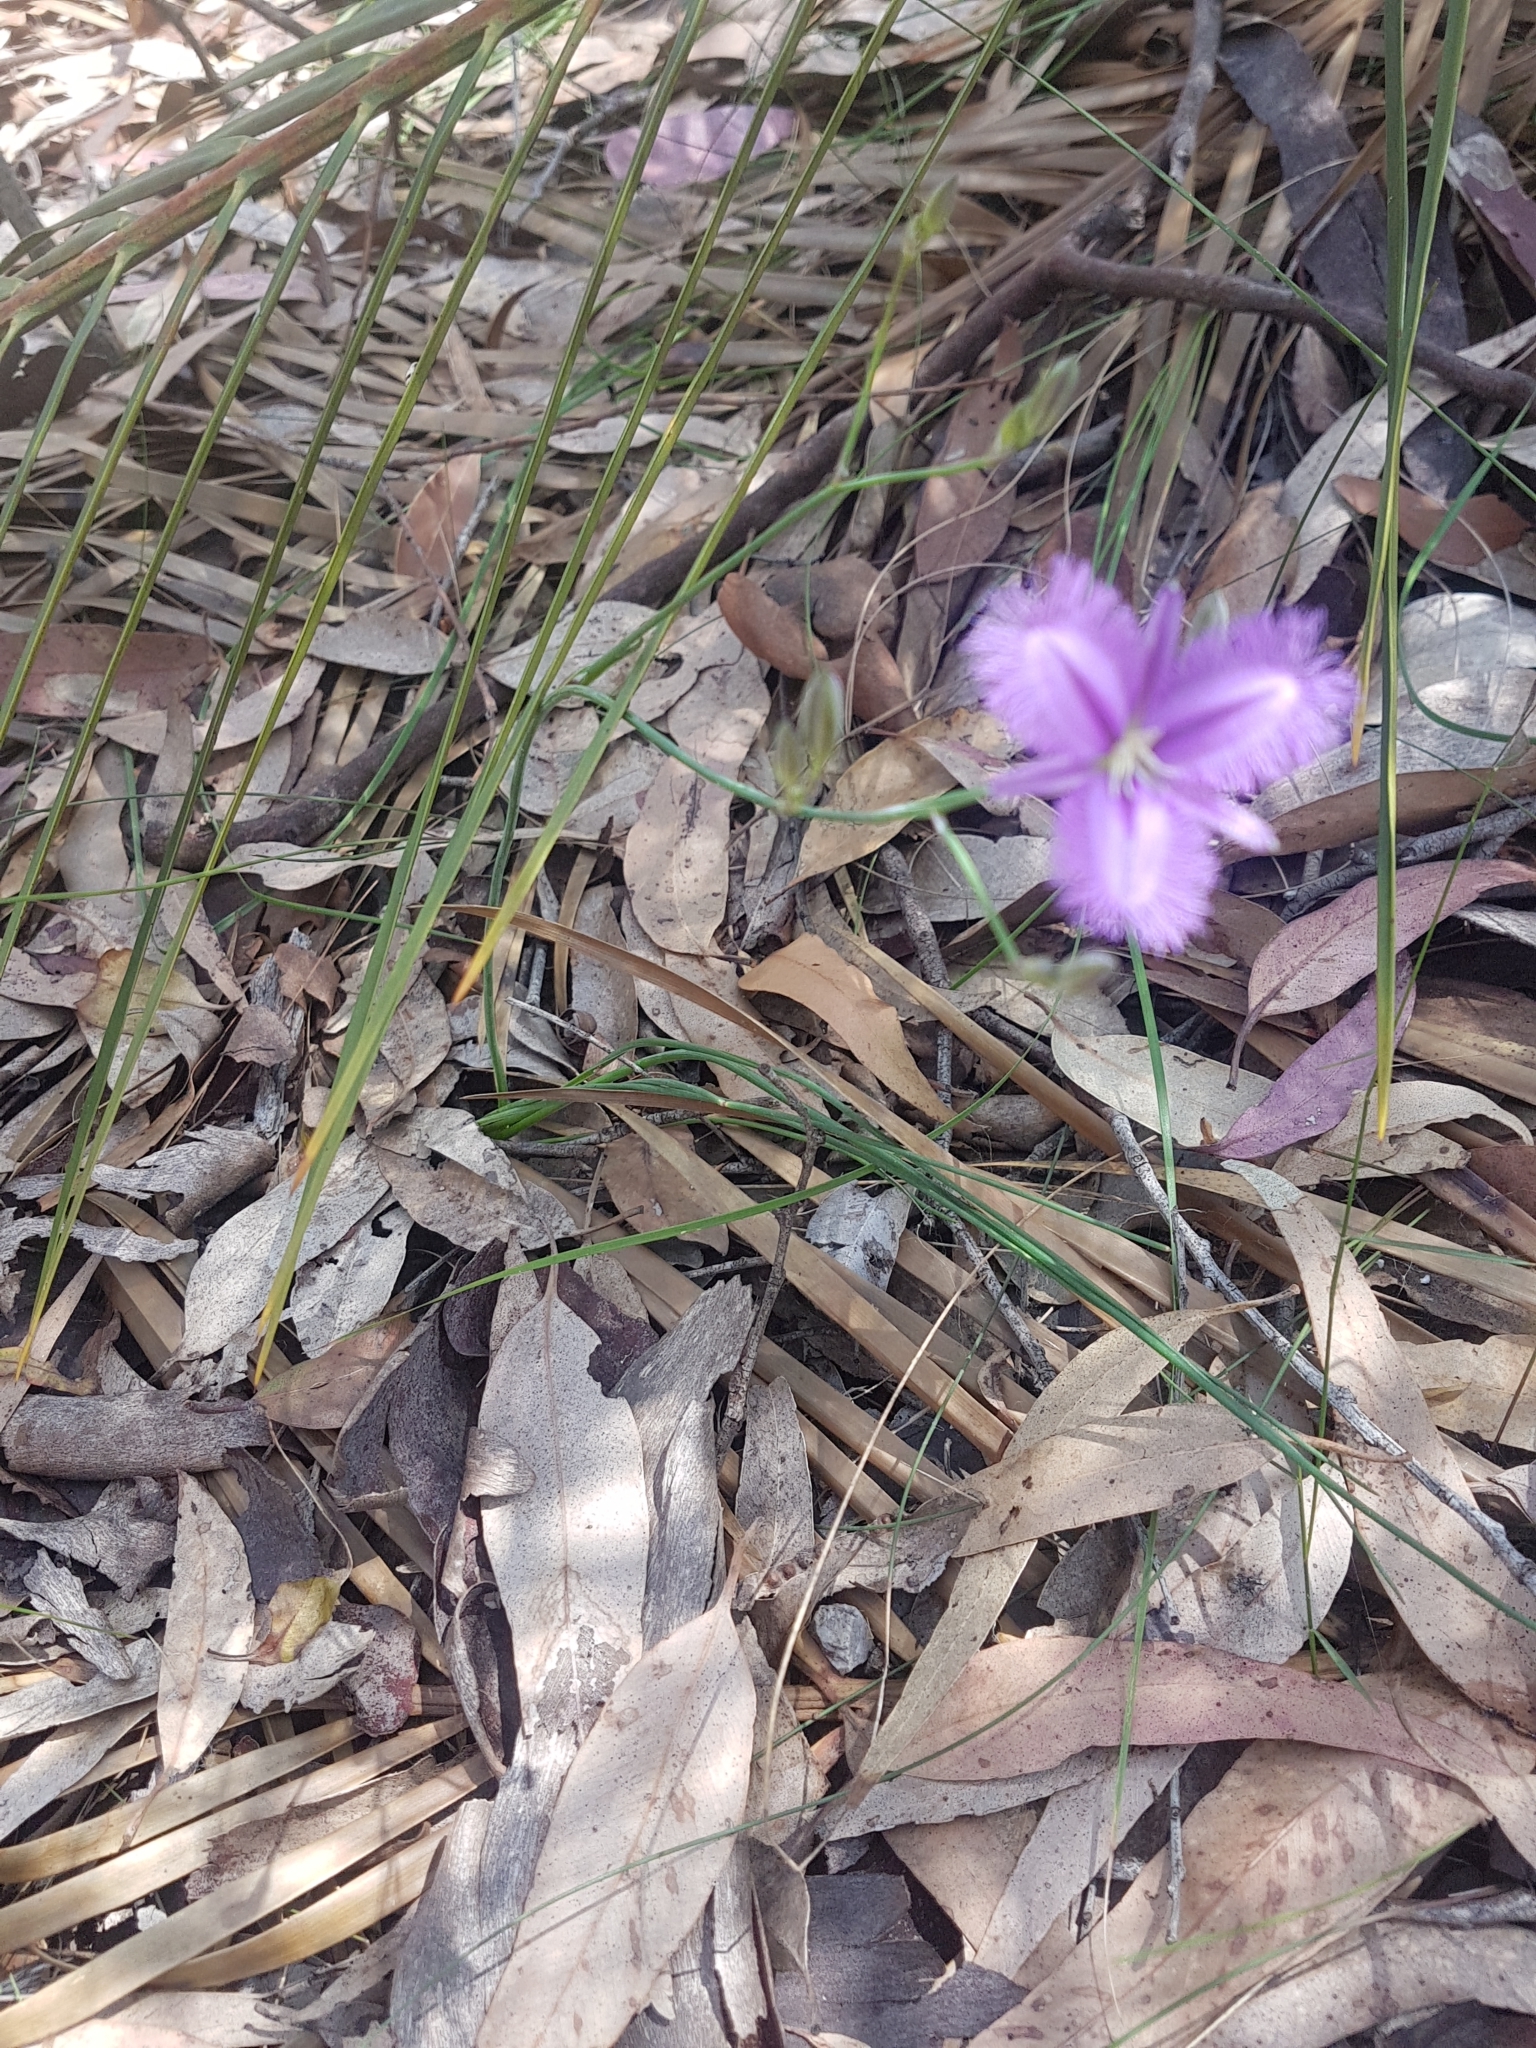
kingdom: Plantae
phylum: Tracheophyta
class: Liliopsida
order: Asparagales
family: Asparagaceae
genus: Thysanotus
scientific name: Thysanotus tuberosus
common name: Common fringed-lily
